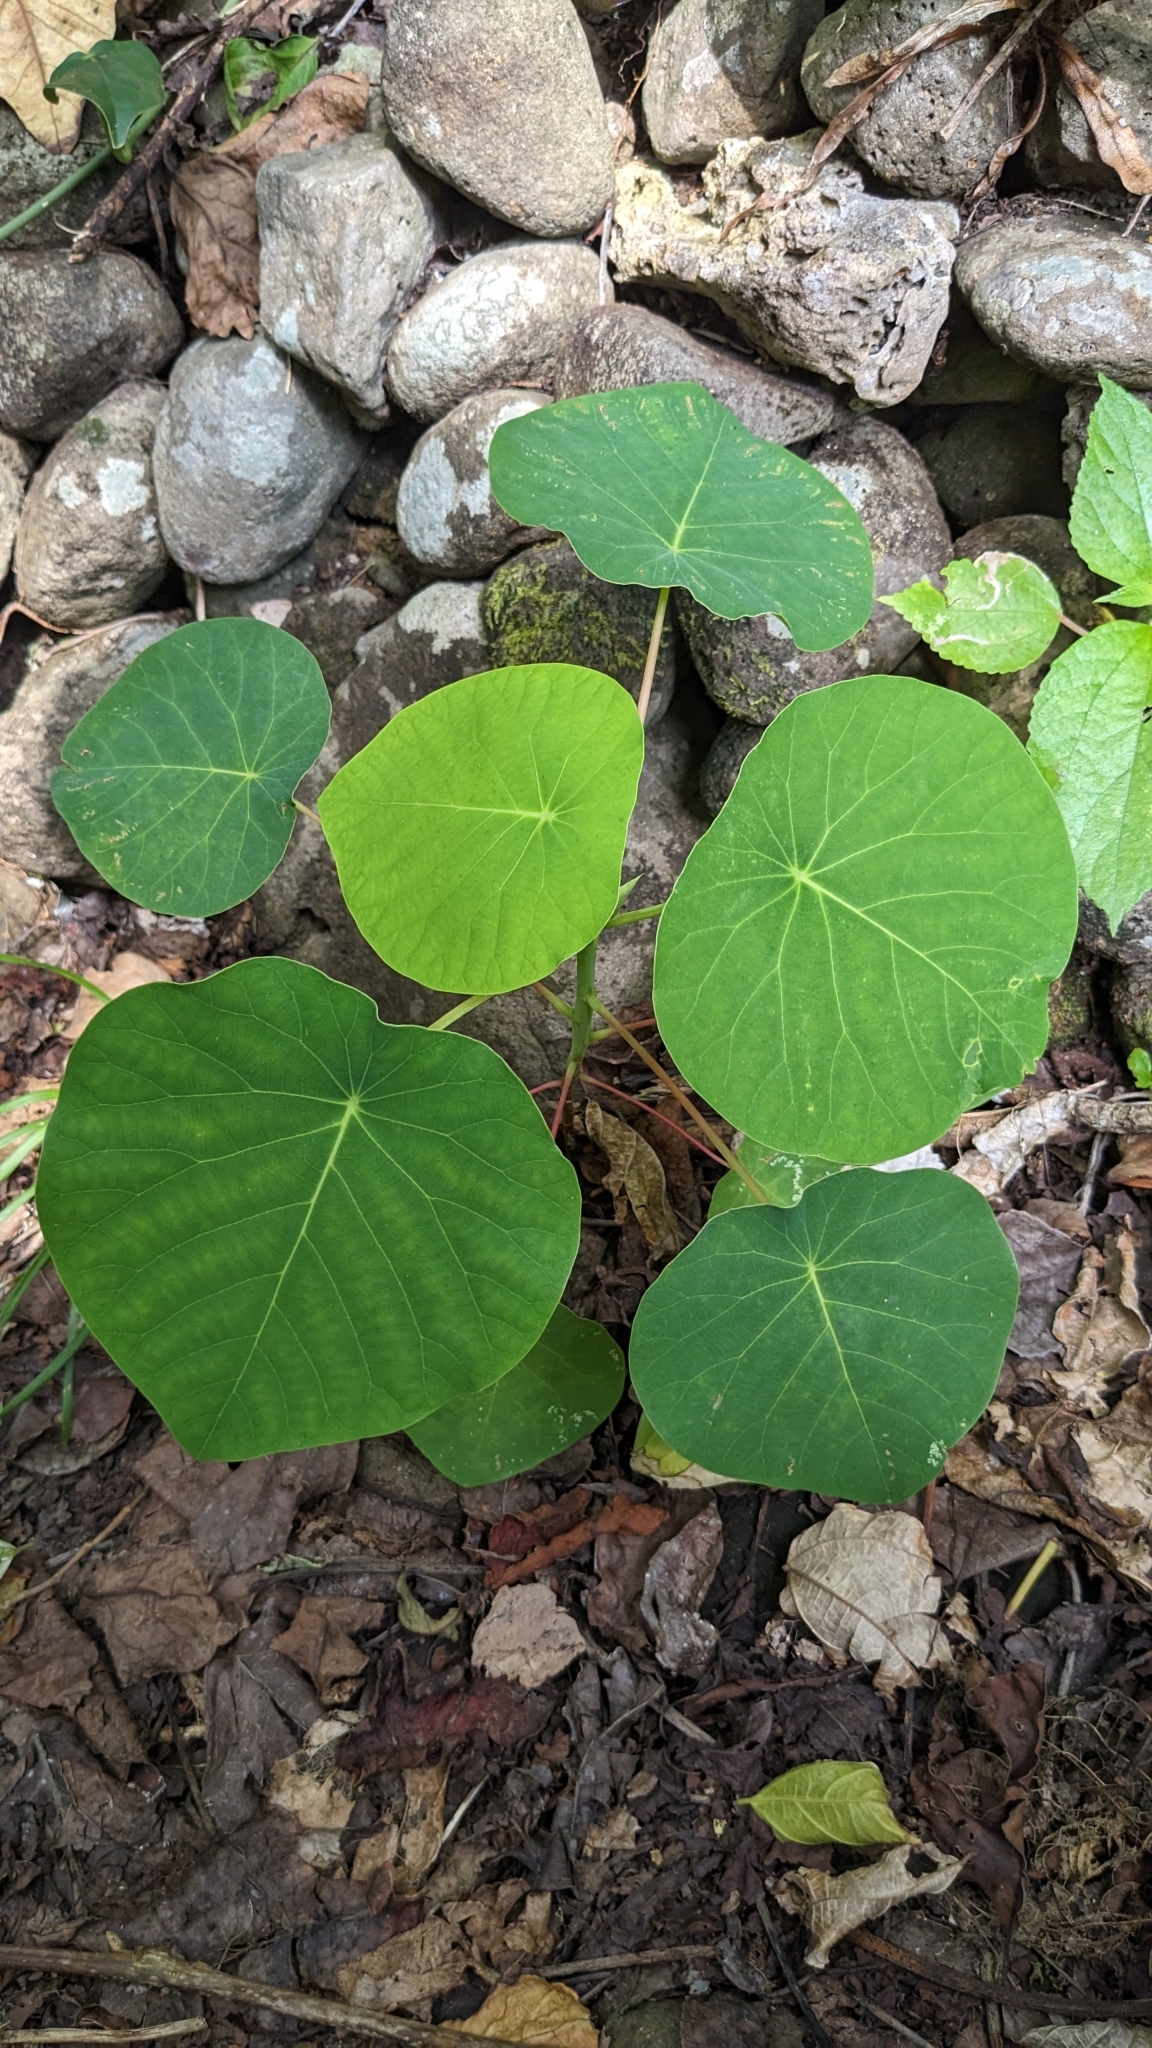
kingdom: Plantae
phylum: Tracheophyta
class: Magnoliopsida
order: Malpighiales
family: Euphorbiaceae
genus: Homalanthus
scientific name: Homalanthus fastuosus
